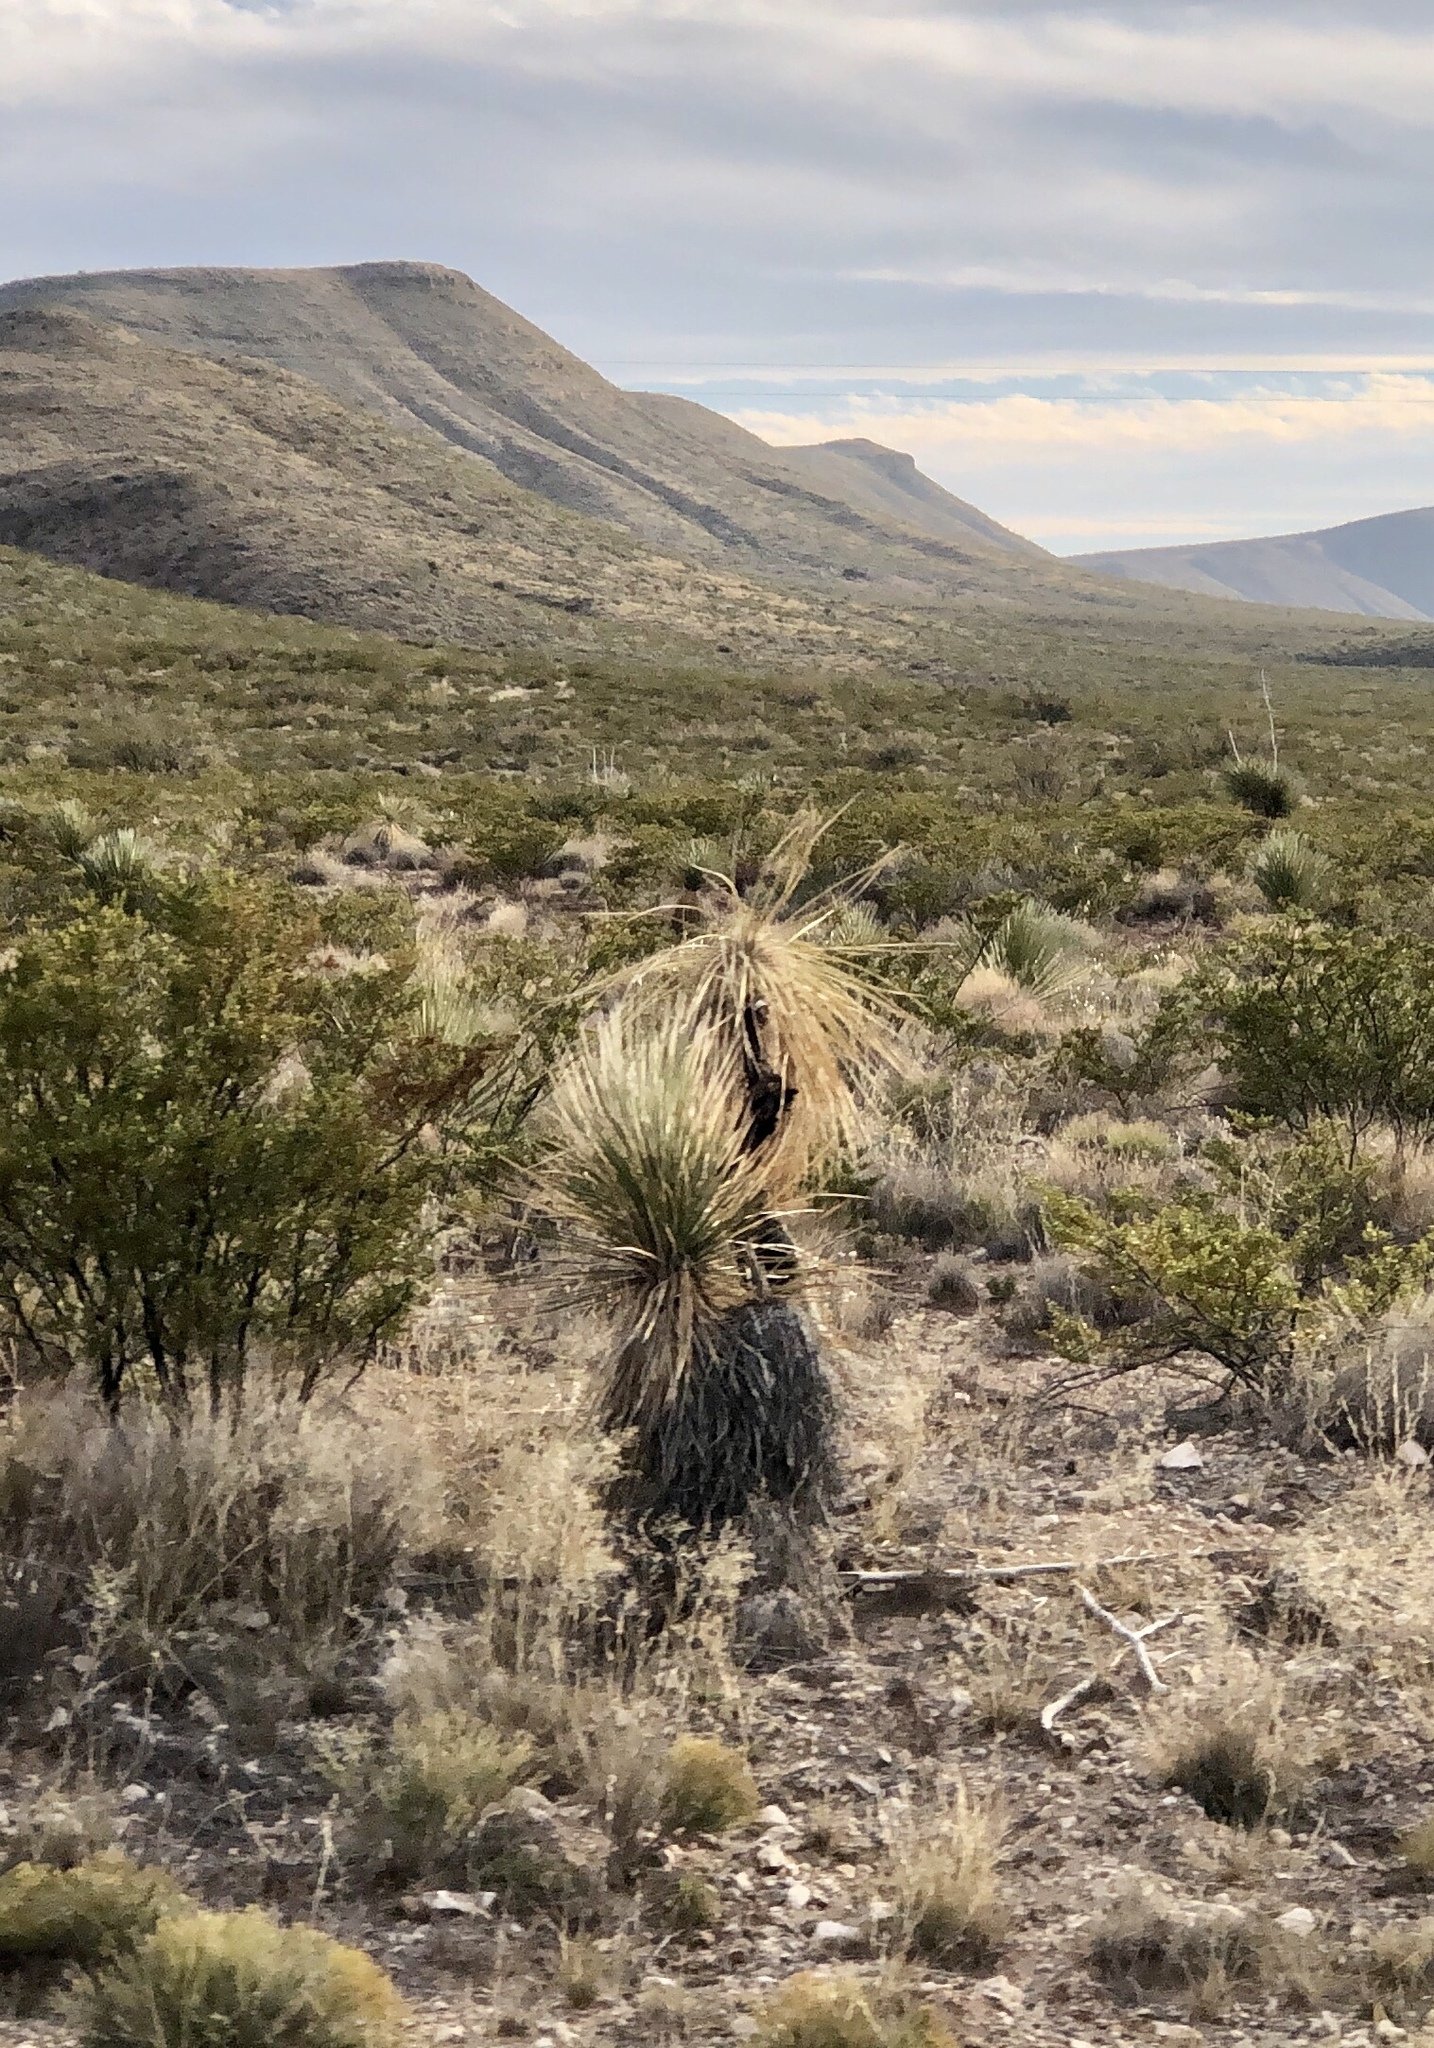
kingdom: Plantae
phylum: Tracheophyta
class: Liliopsida
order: Asparagales
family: Asparagaceae
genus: Yucca
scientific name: Yucca elata
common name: Palmella
